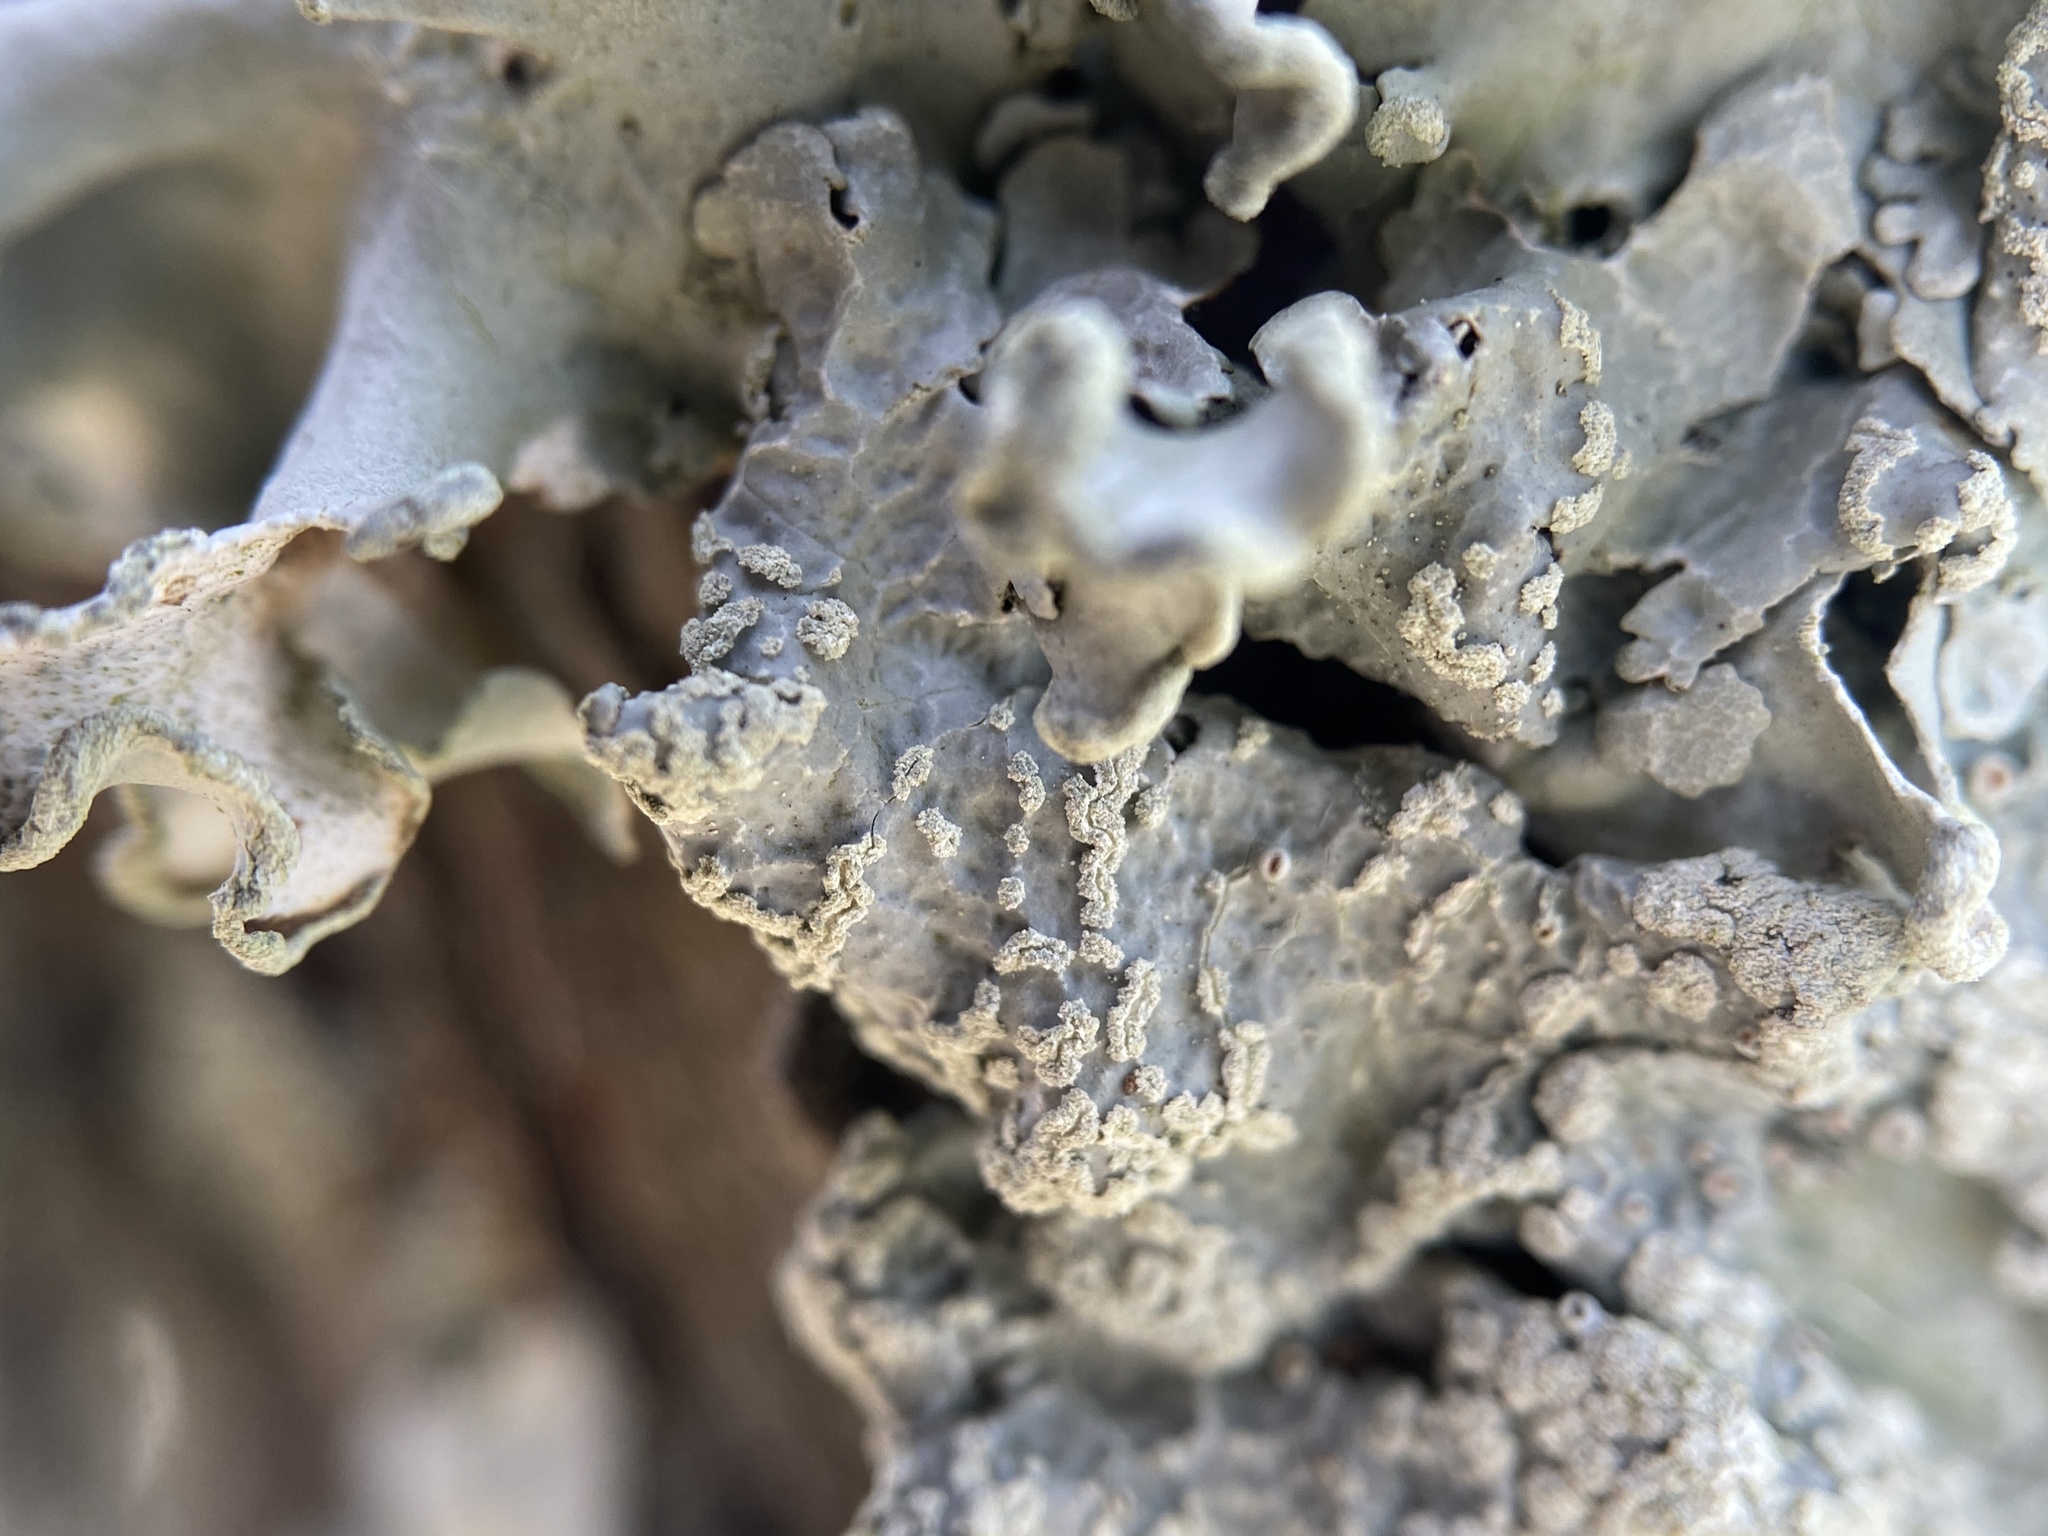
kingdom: Fungi
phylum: Ascomycota
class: Lecanoromycetes
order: Lecanorales
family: Parmeliaceae
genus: Crespoa
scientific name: Crespoa crozalsiana
